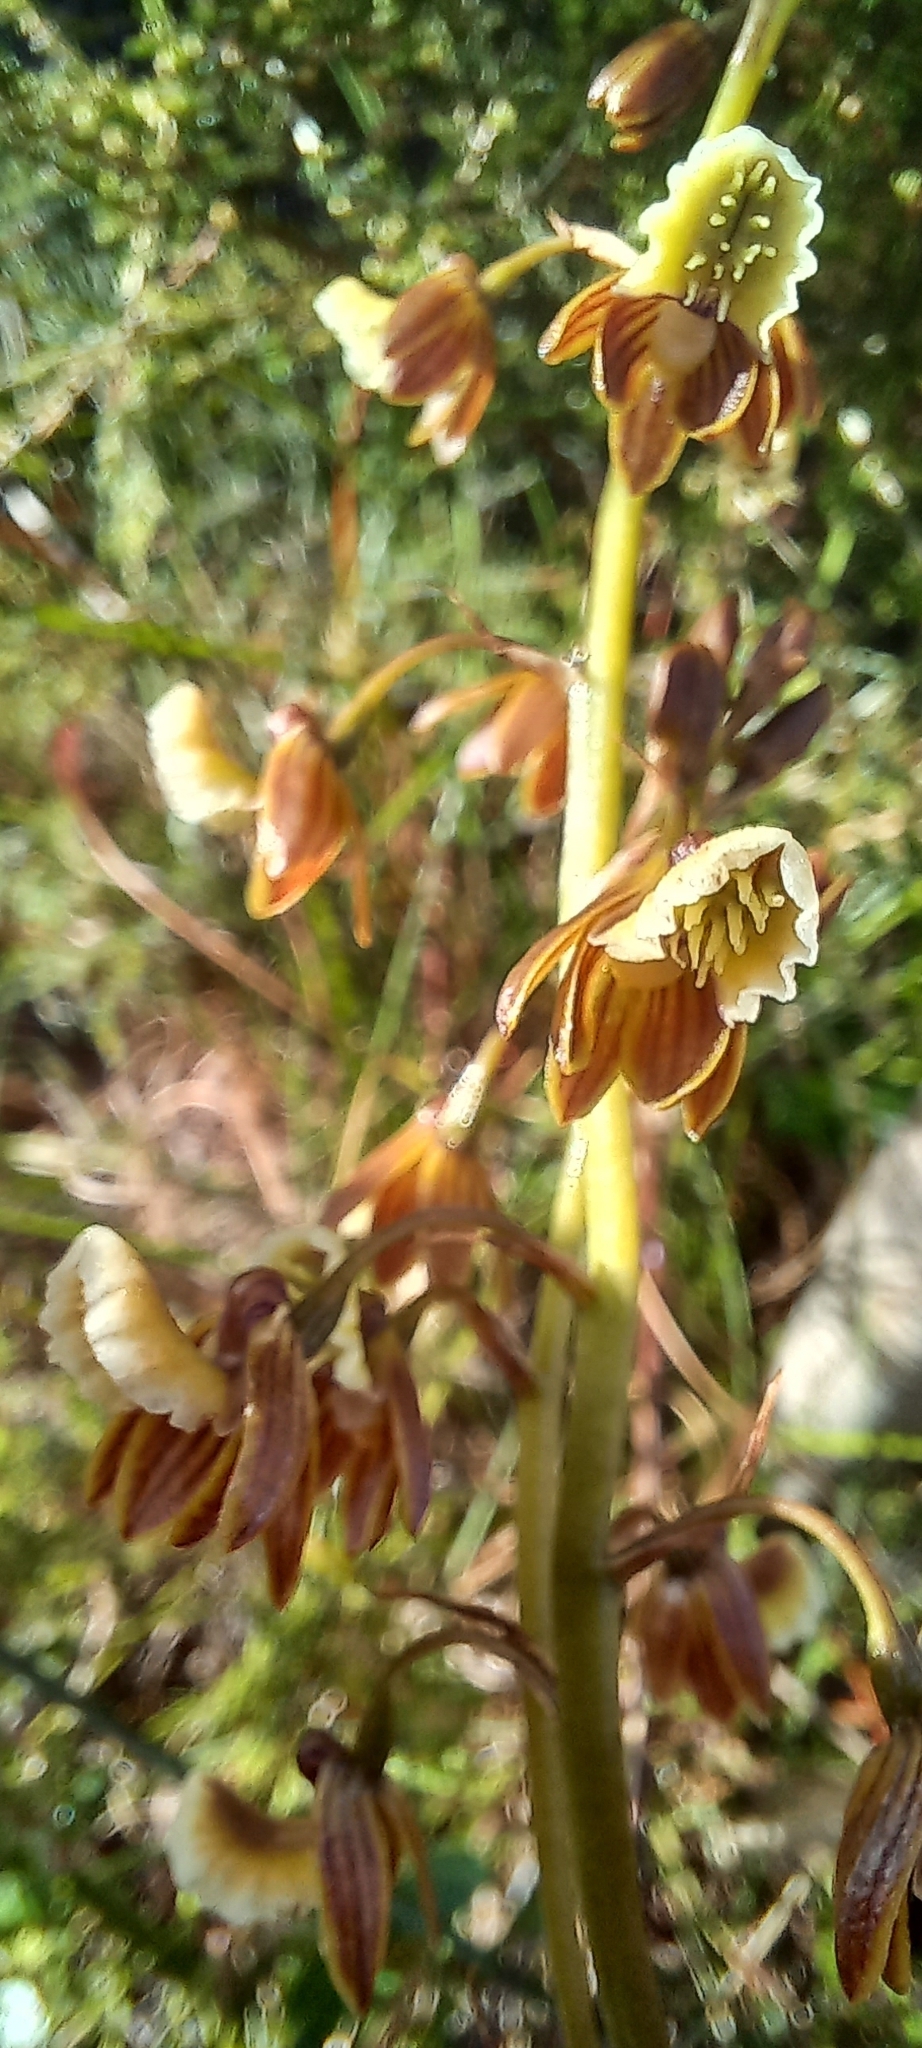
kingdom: Plantae
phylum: Tracheophyta
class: Liliopsida
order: Asparagales
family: Orchidaceae
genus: Eulophia
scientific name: Eulophia bolusii
